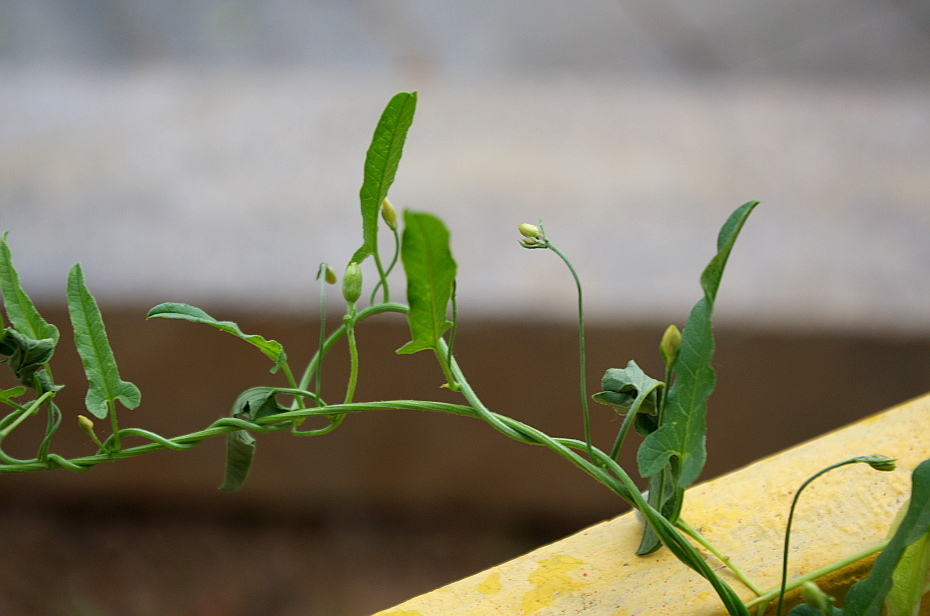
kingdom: Plantae
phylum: Tracheophyta
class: Magnoliopsida
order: Solanales
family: Convolvulaceae
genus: Convolvulus
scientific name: Convolvulus arvensis
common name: Field bindweed
